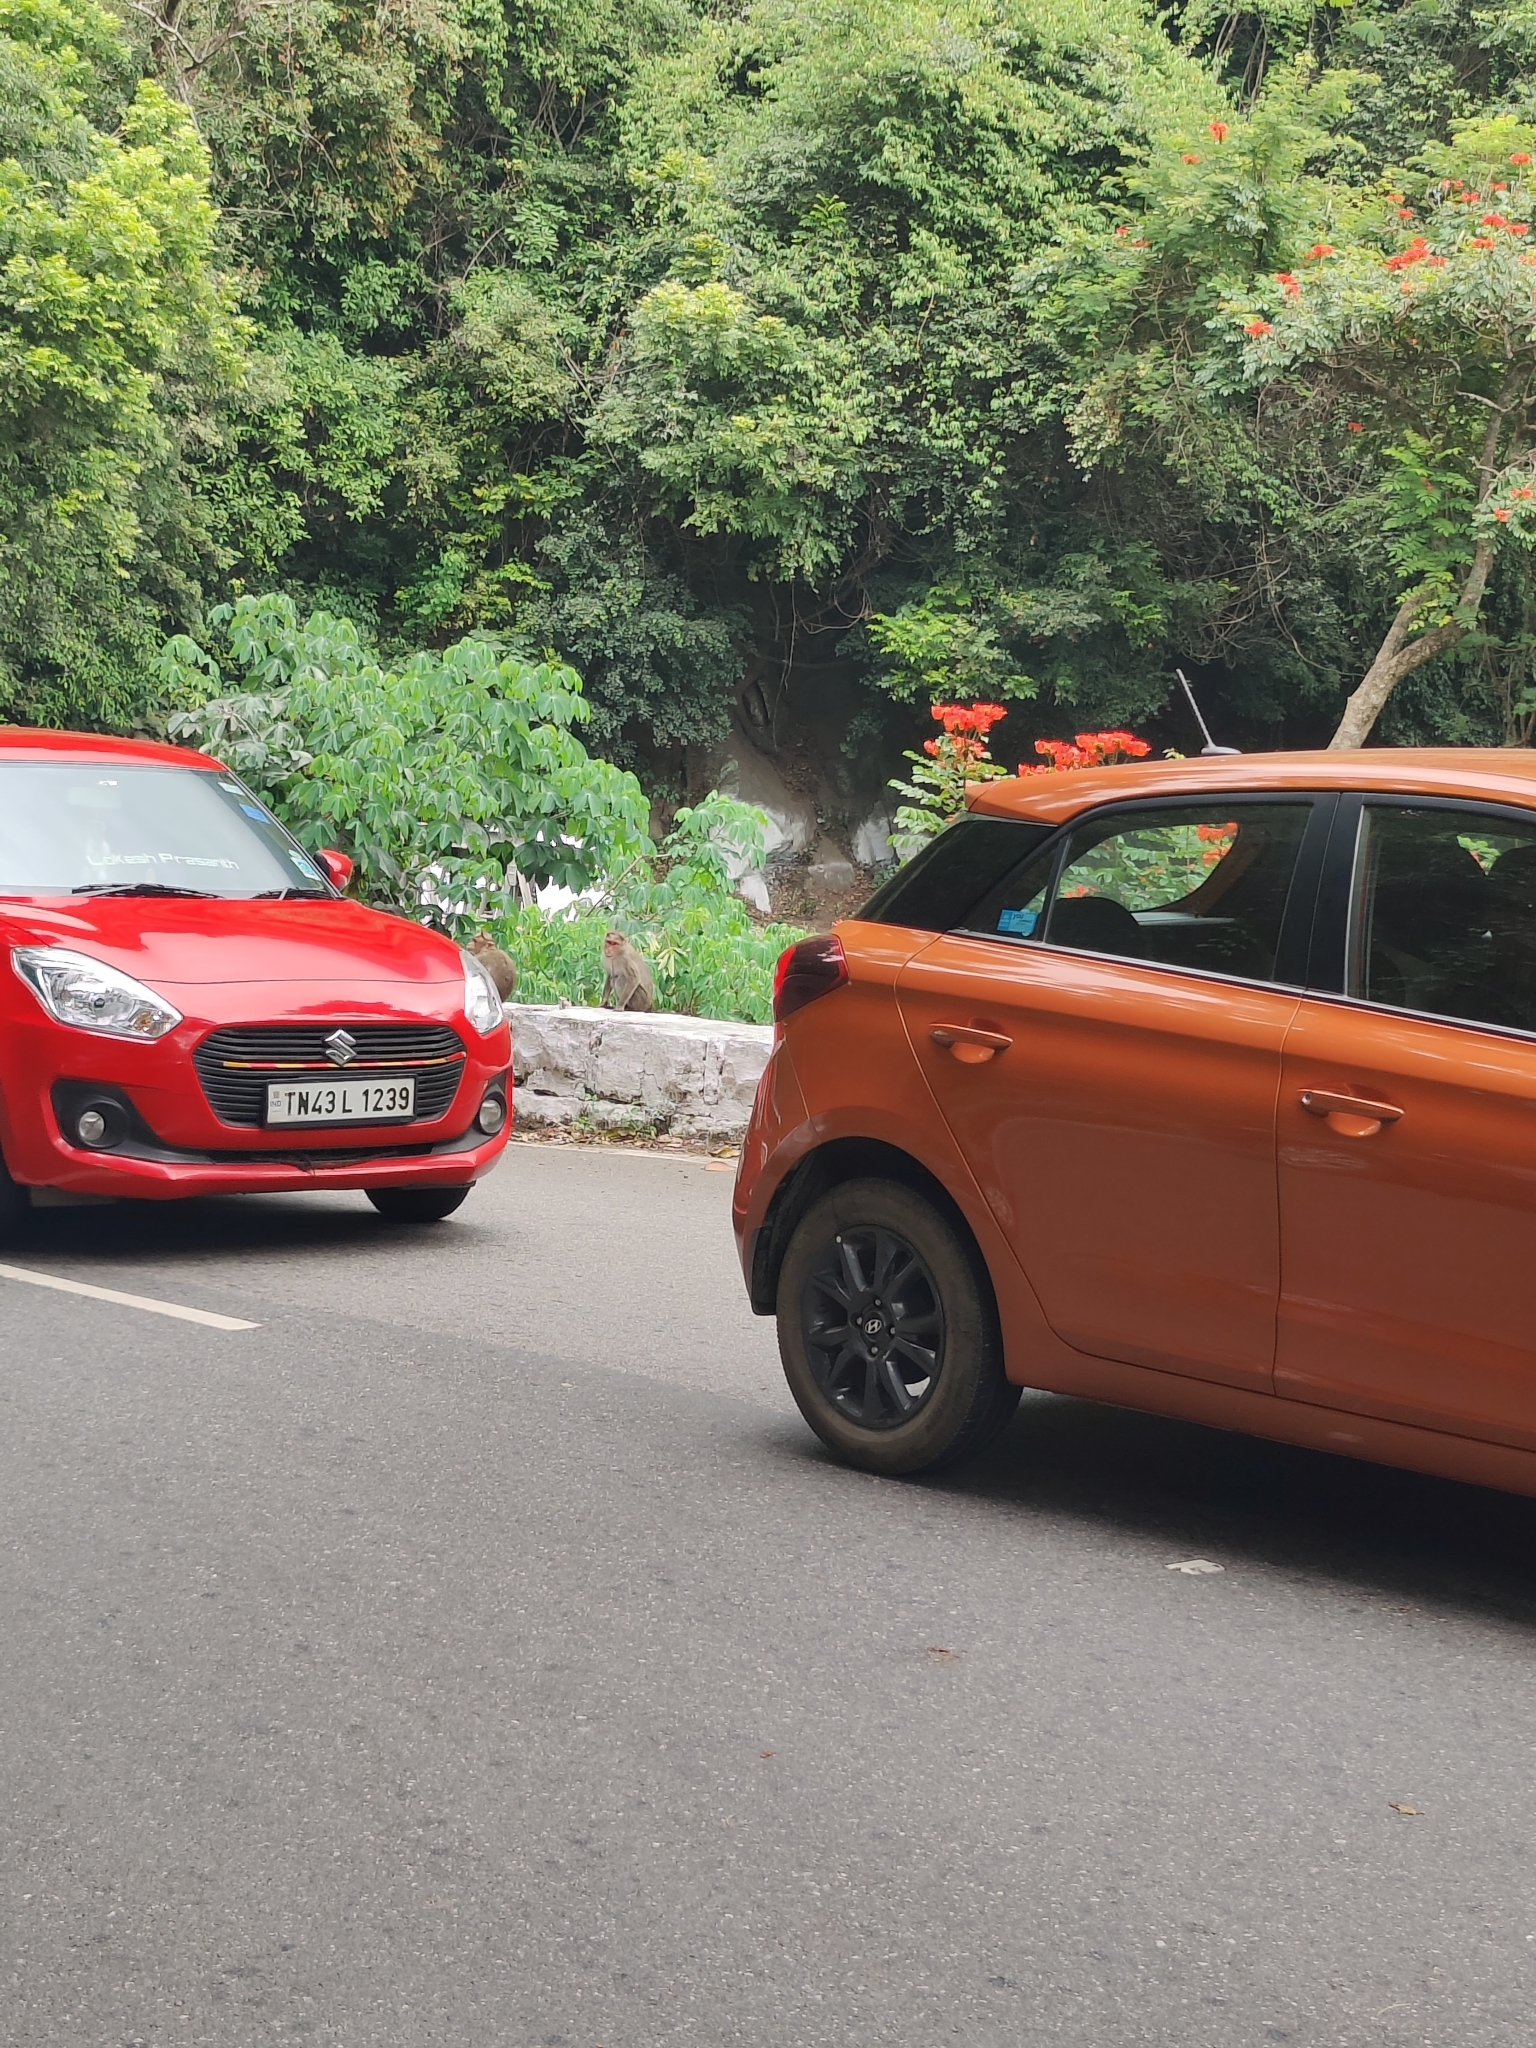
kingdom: Animalia
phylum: Chordata
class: Mammalia
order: Primates
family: Cercopithecidae
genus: Macaca
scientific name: Macaca radiata
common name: Bonnet macaque
